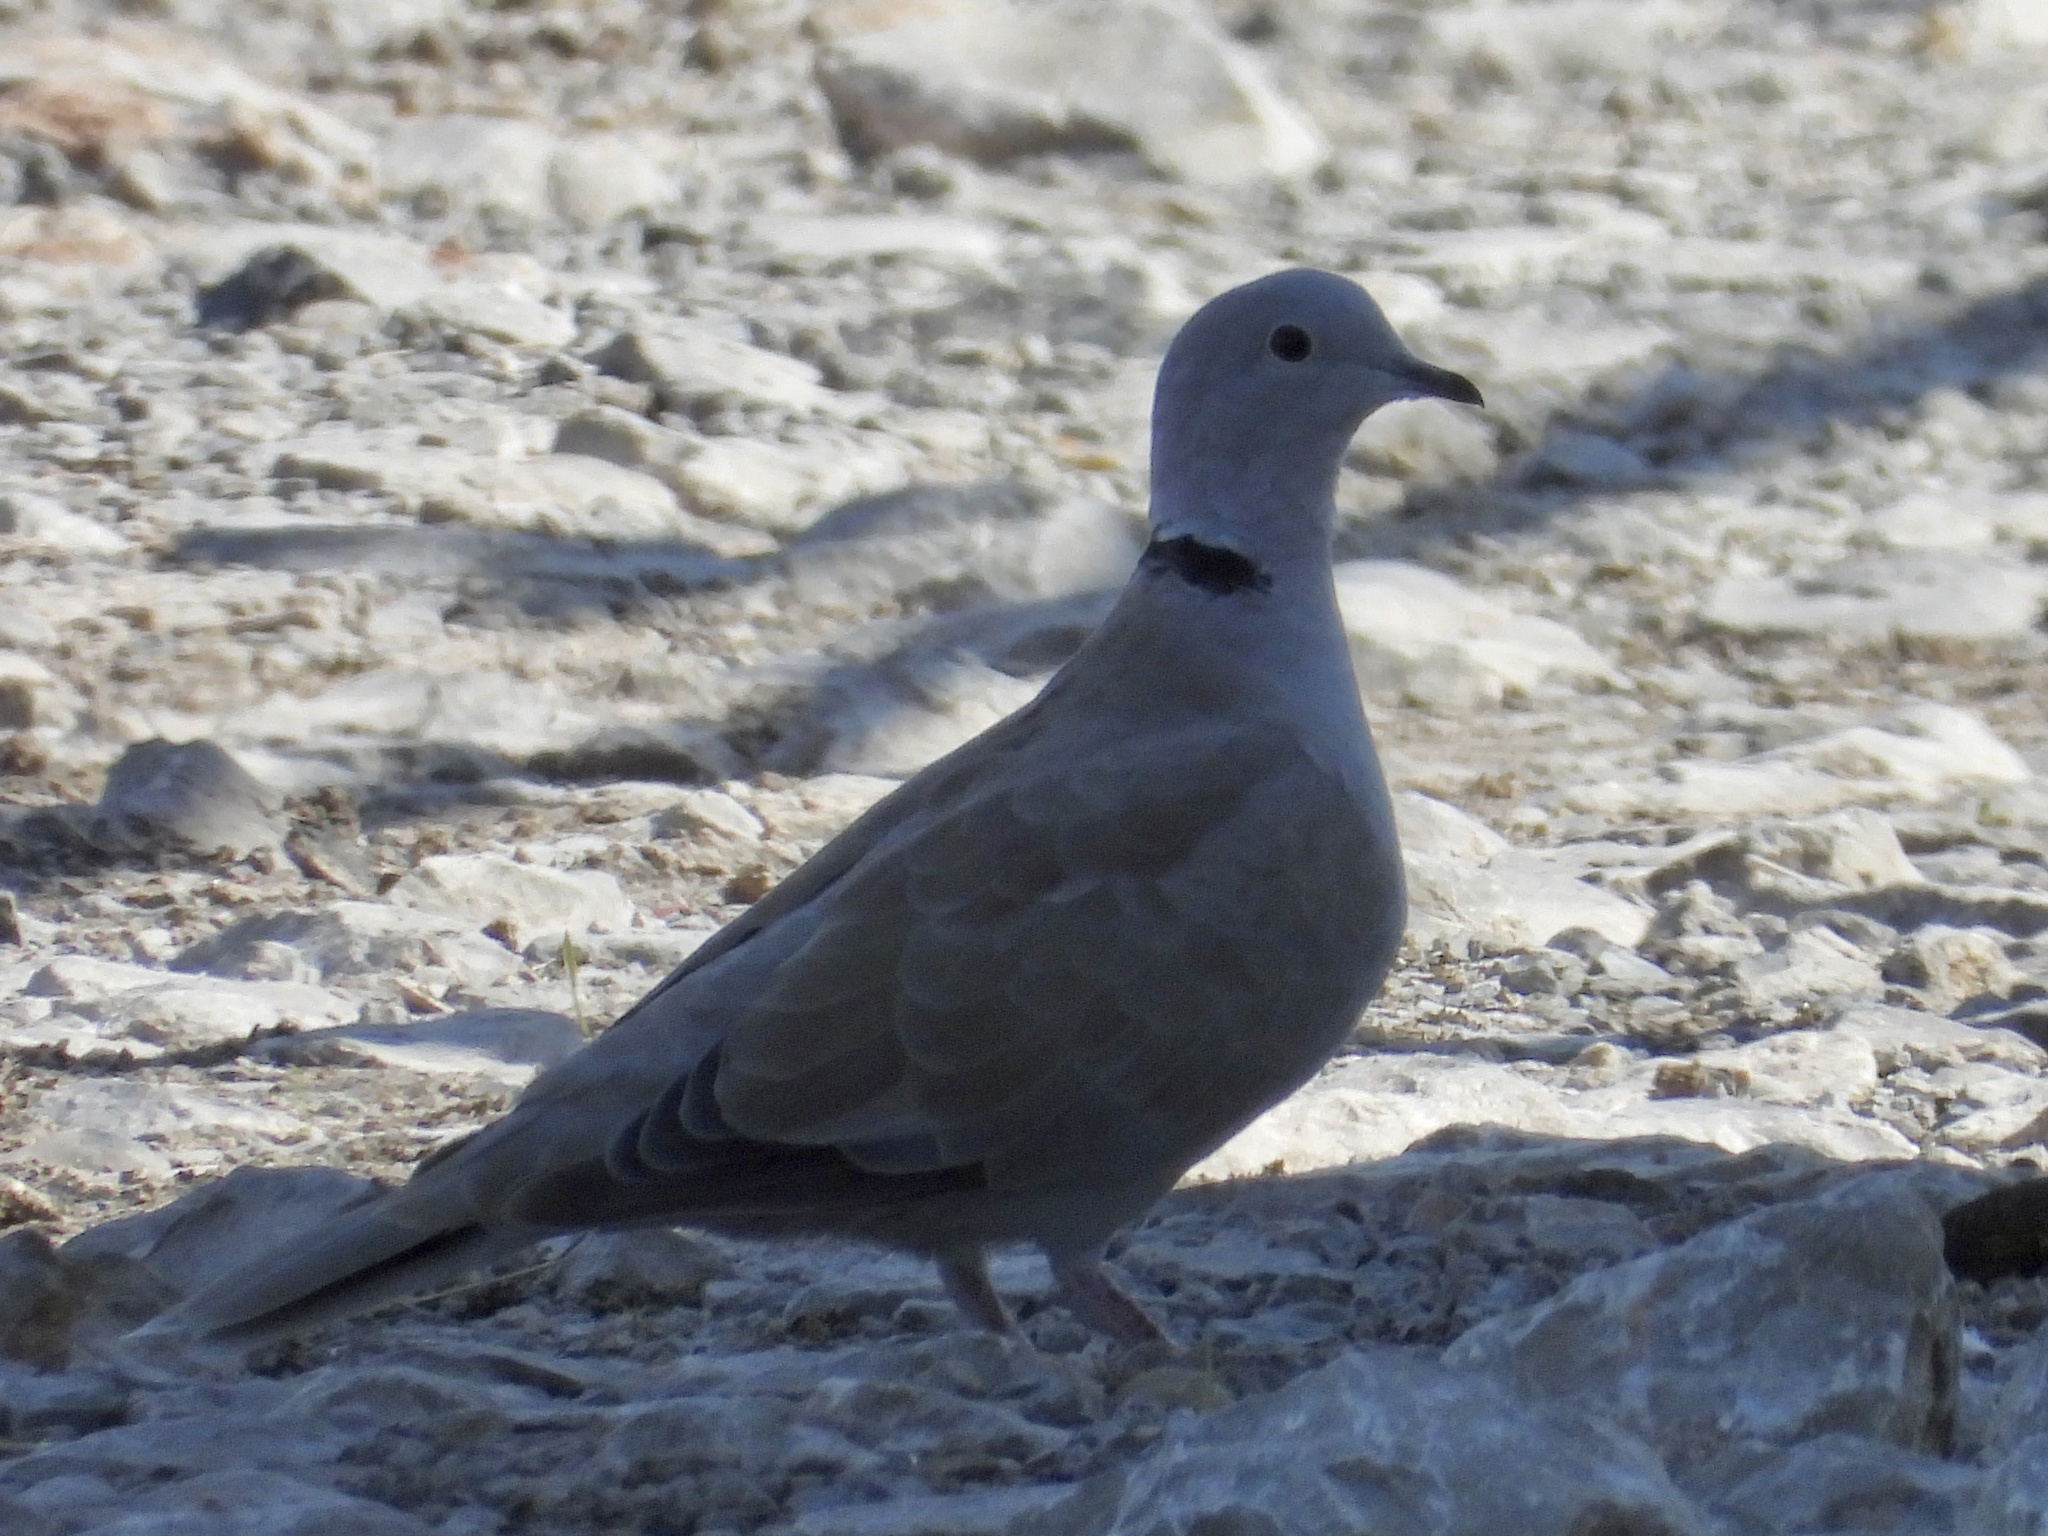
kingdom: Animalia
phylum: Chordata
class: Aves
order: Columbiformes
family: Columbidae
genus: Streptopelia
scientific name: Streptopelia decaocto
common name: Eurasian collared dove
